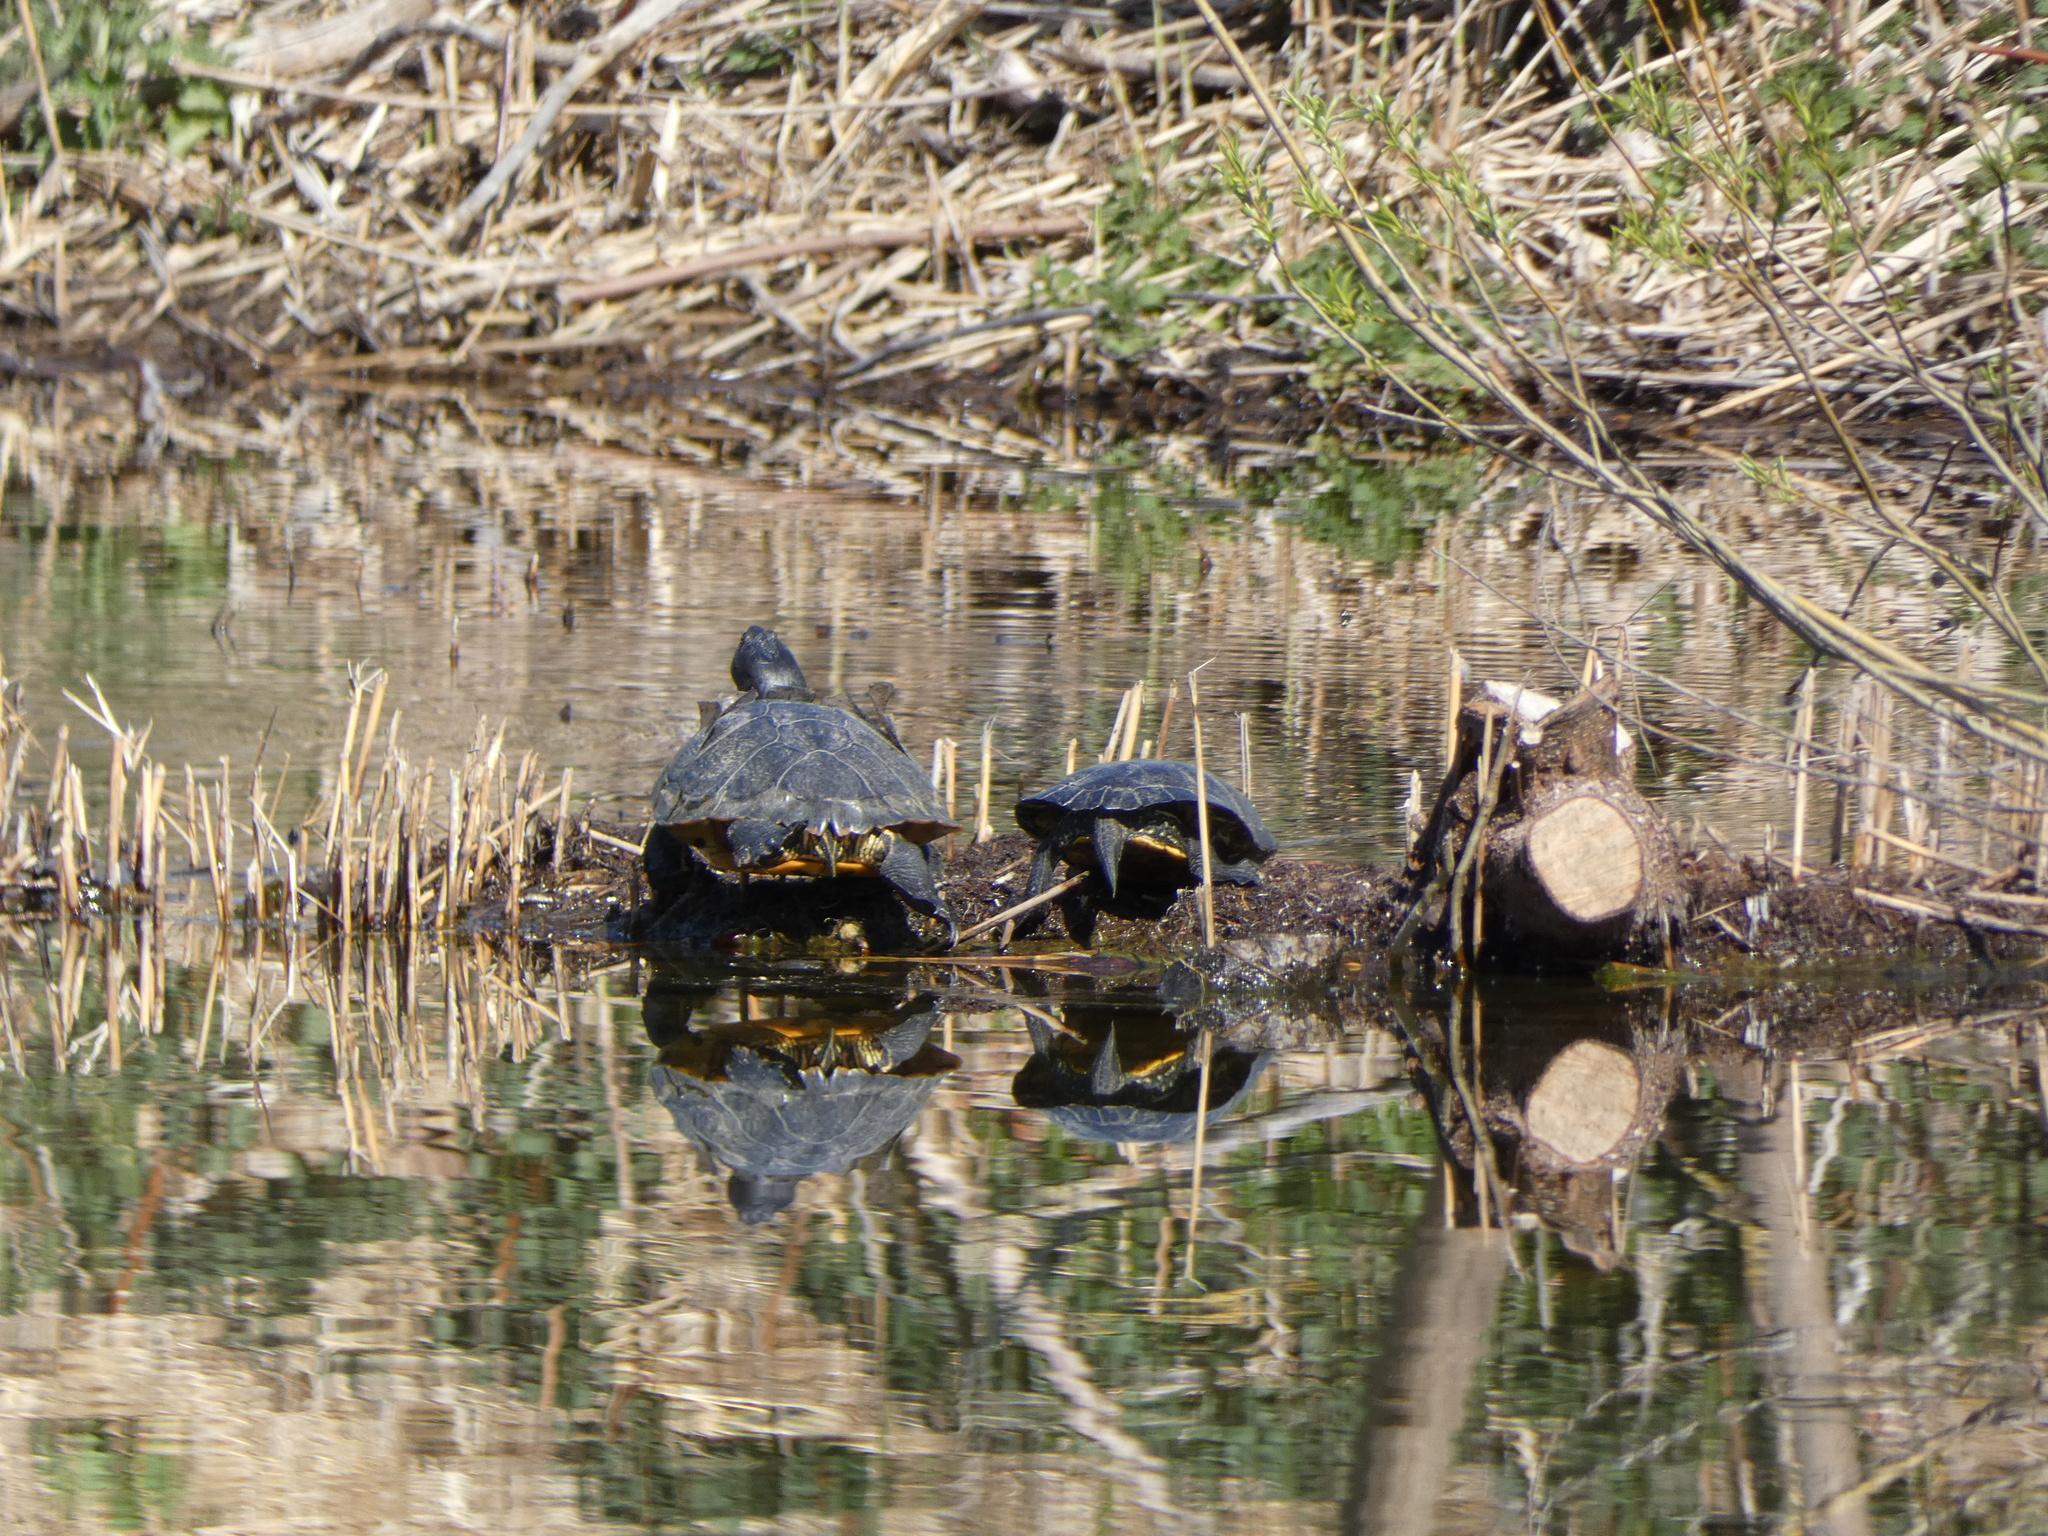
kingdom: Animalia
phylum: Chordata
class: Testudines
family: Emydidae
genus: Trachemys
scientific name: Trachemys scripta
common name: Slider
